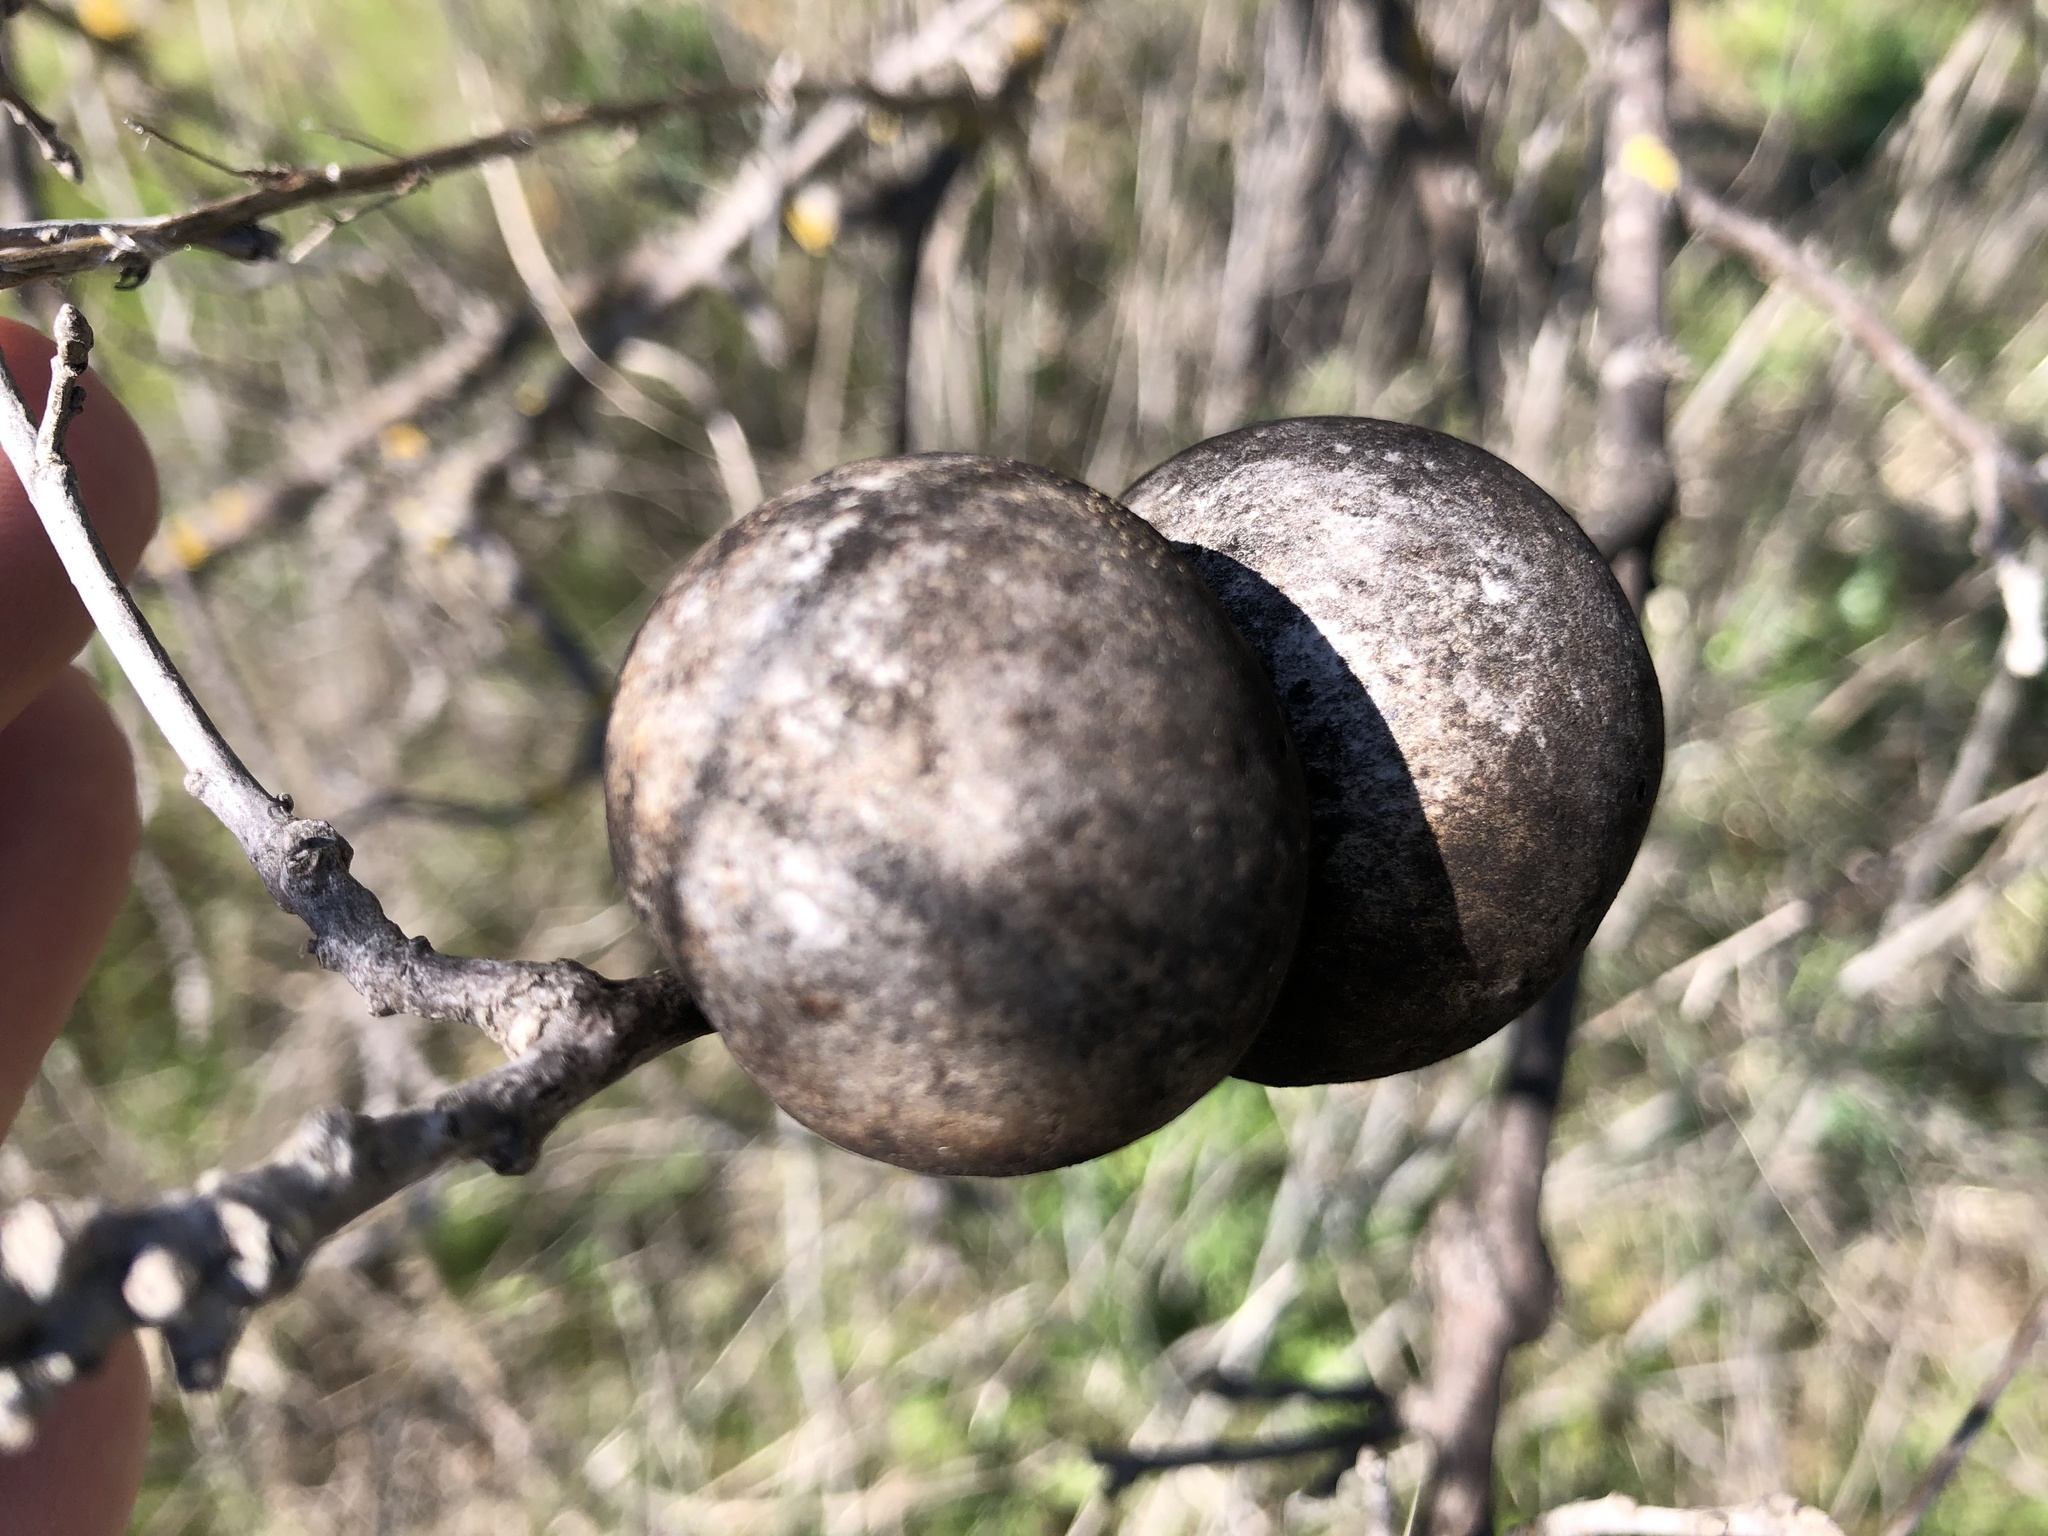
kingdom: Animalia
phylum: Arthropoda
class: Insecta
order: Hymenoptera
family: Cynipidae
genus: Andricus
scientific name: Andricus quercuscalifornicus
